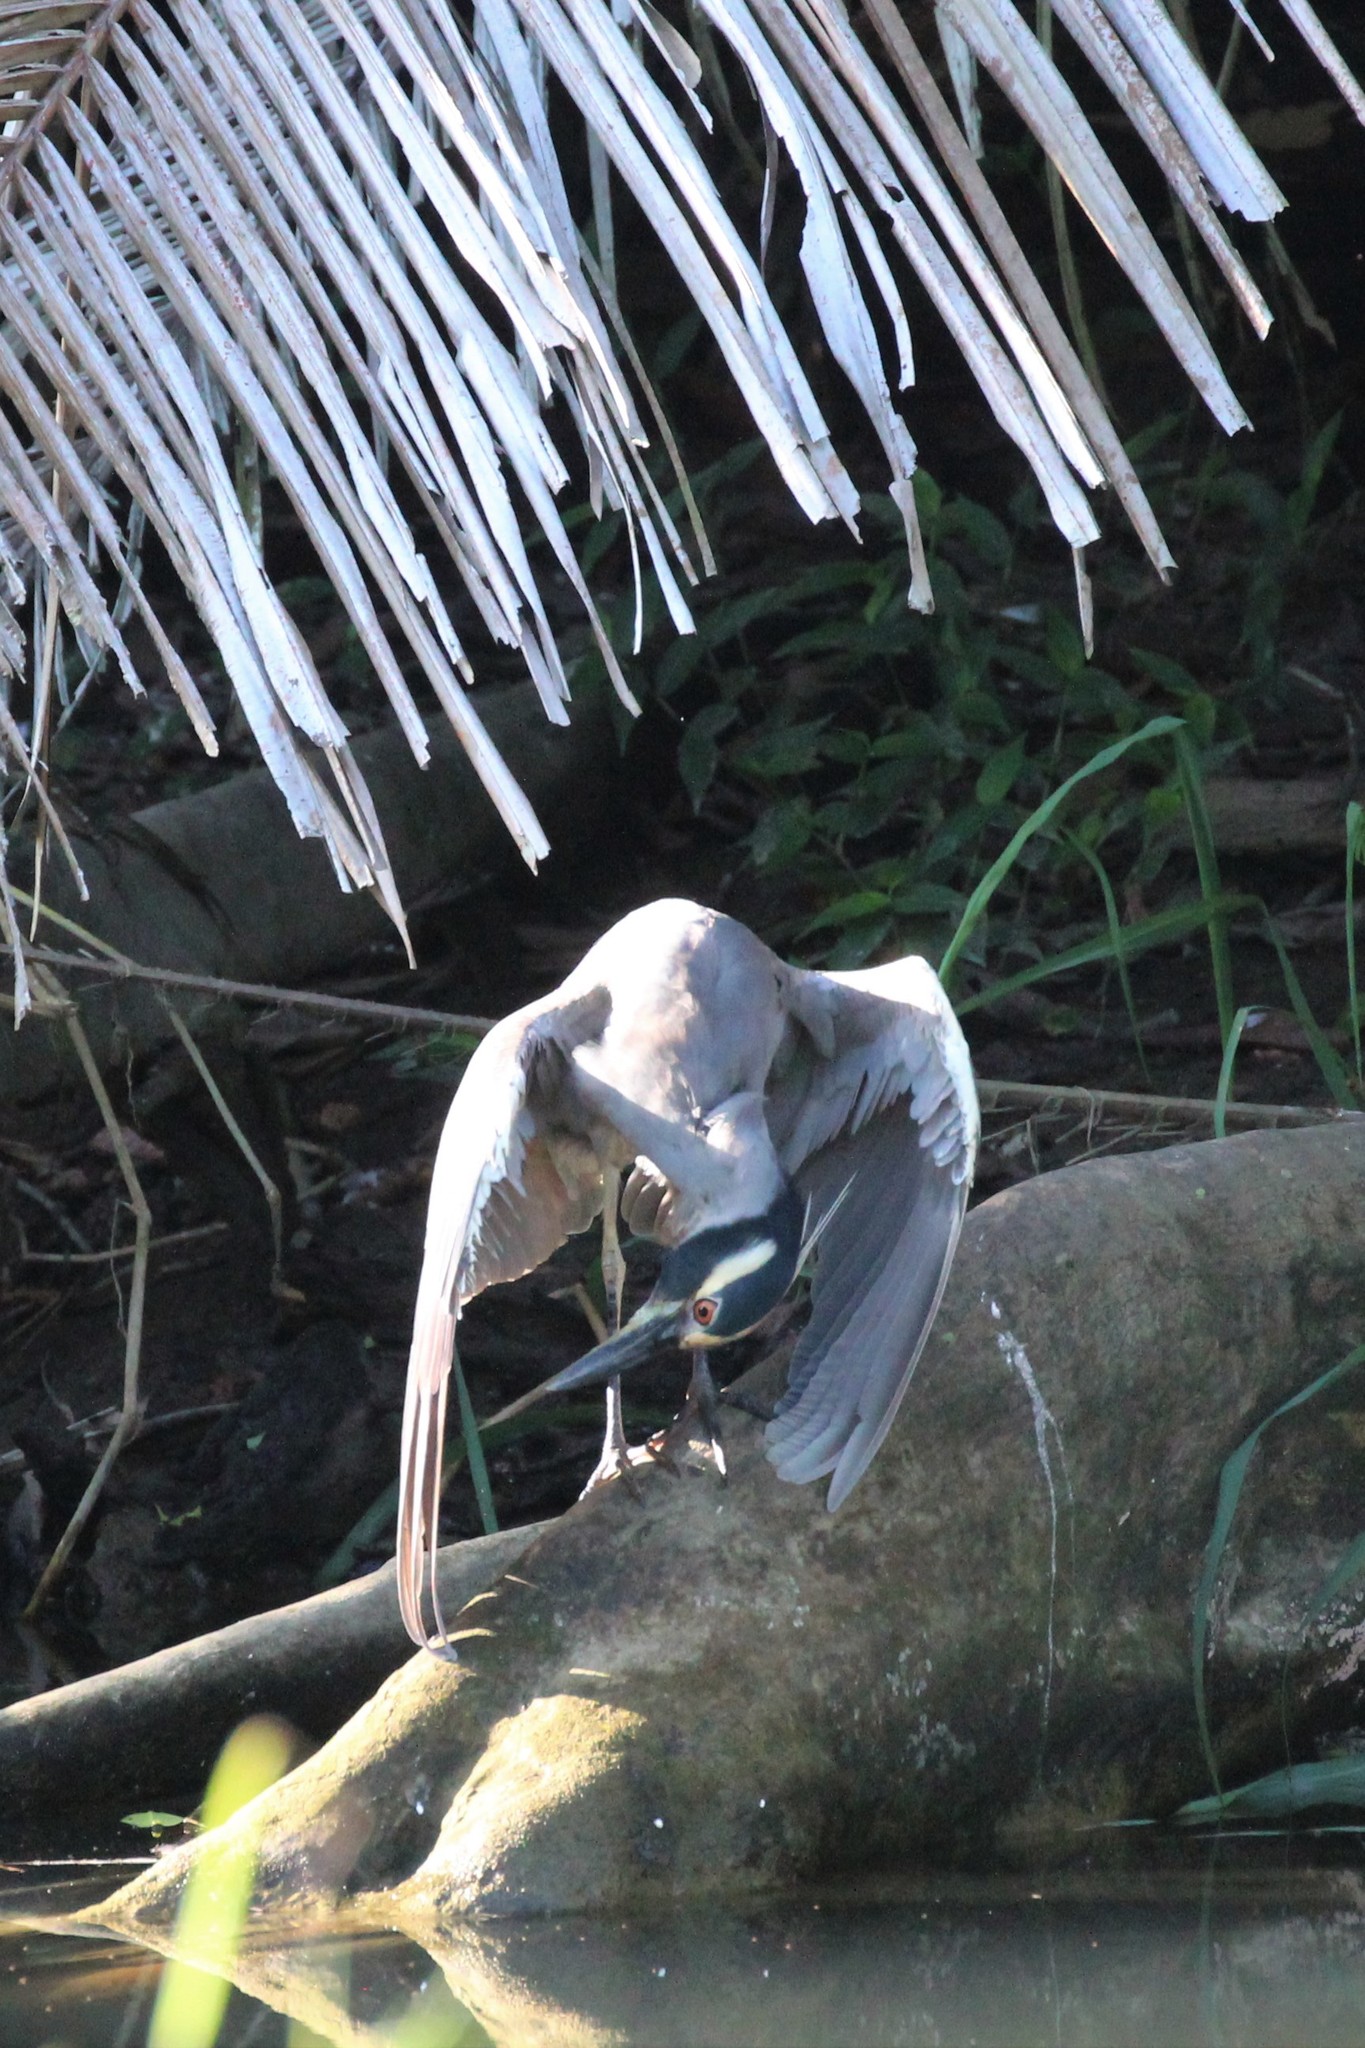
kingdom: Animalia
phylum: Chordata
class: Aves
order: Pelecaniformes
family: Ardeidae
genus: Nyctanassa
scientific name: Nyctanassa violacea
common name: Yellow-crowned night heron
